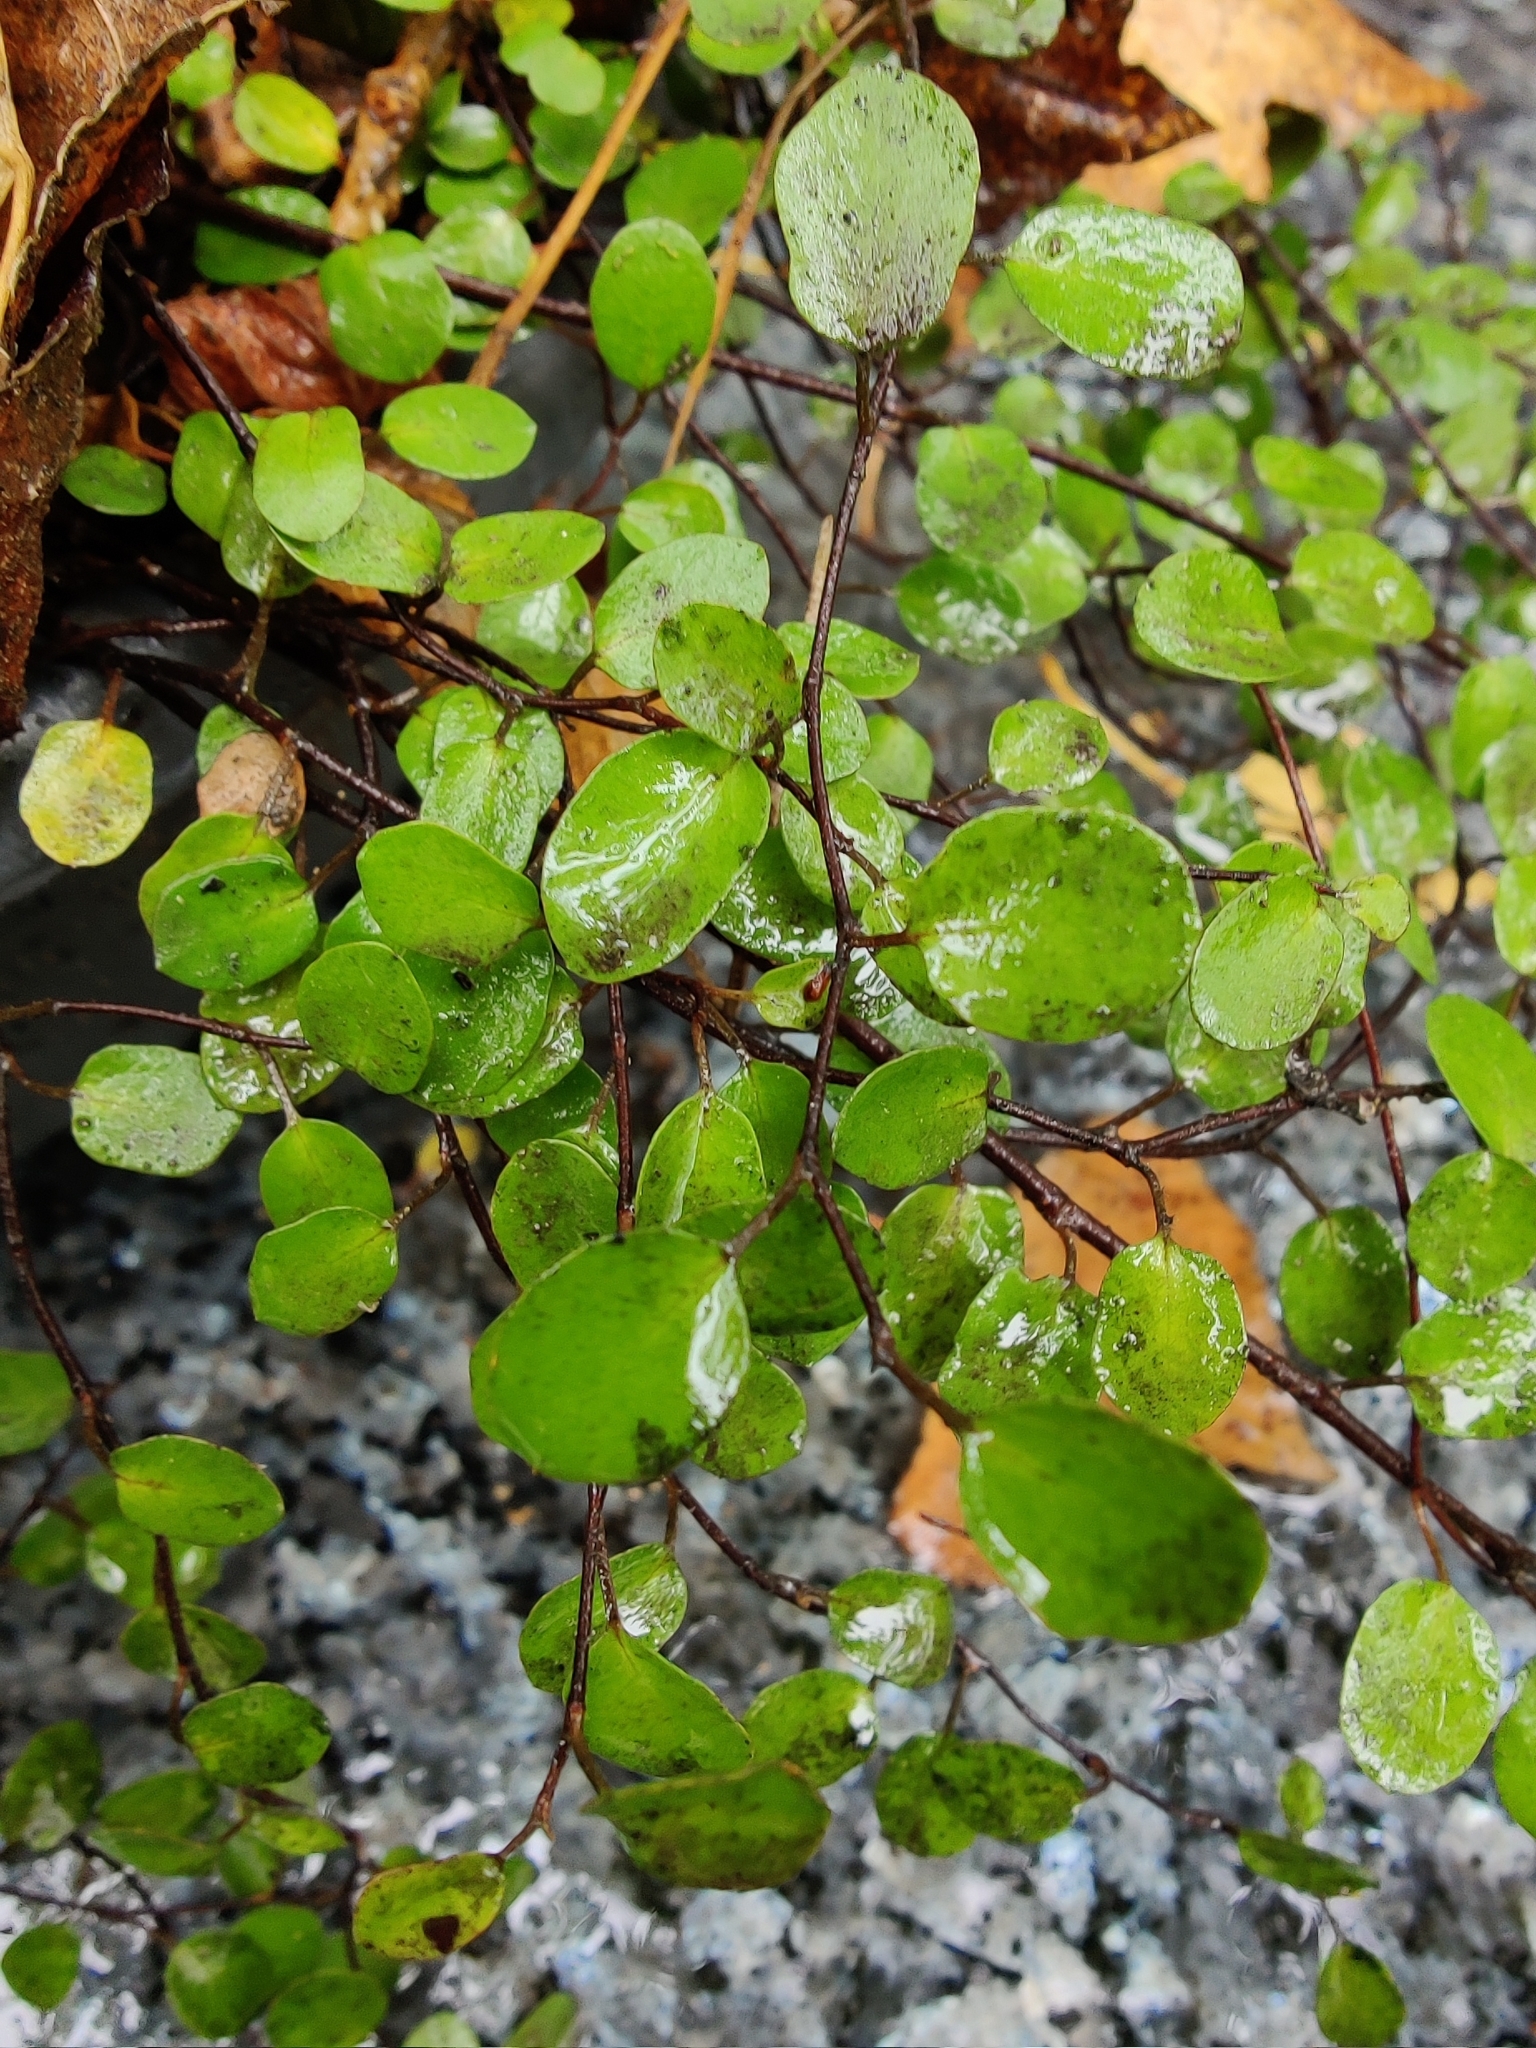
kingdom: Plantae
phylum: Tracheophyta
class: Magnoliopsida
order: Caryophyllales
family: Polygonaceae
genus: Muehlenbeckia
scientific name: Muehlenbeckia complexa
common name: Wireplant
